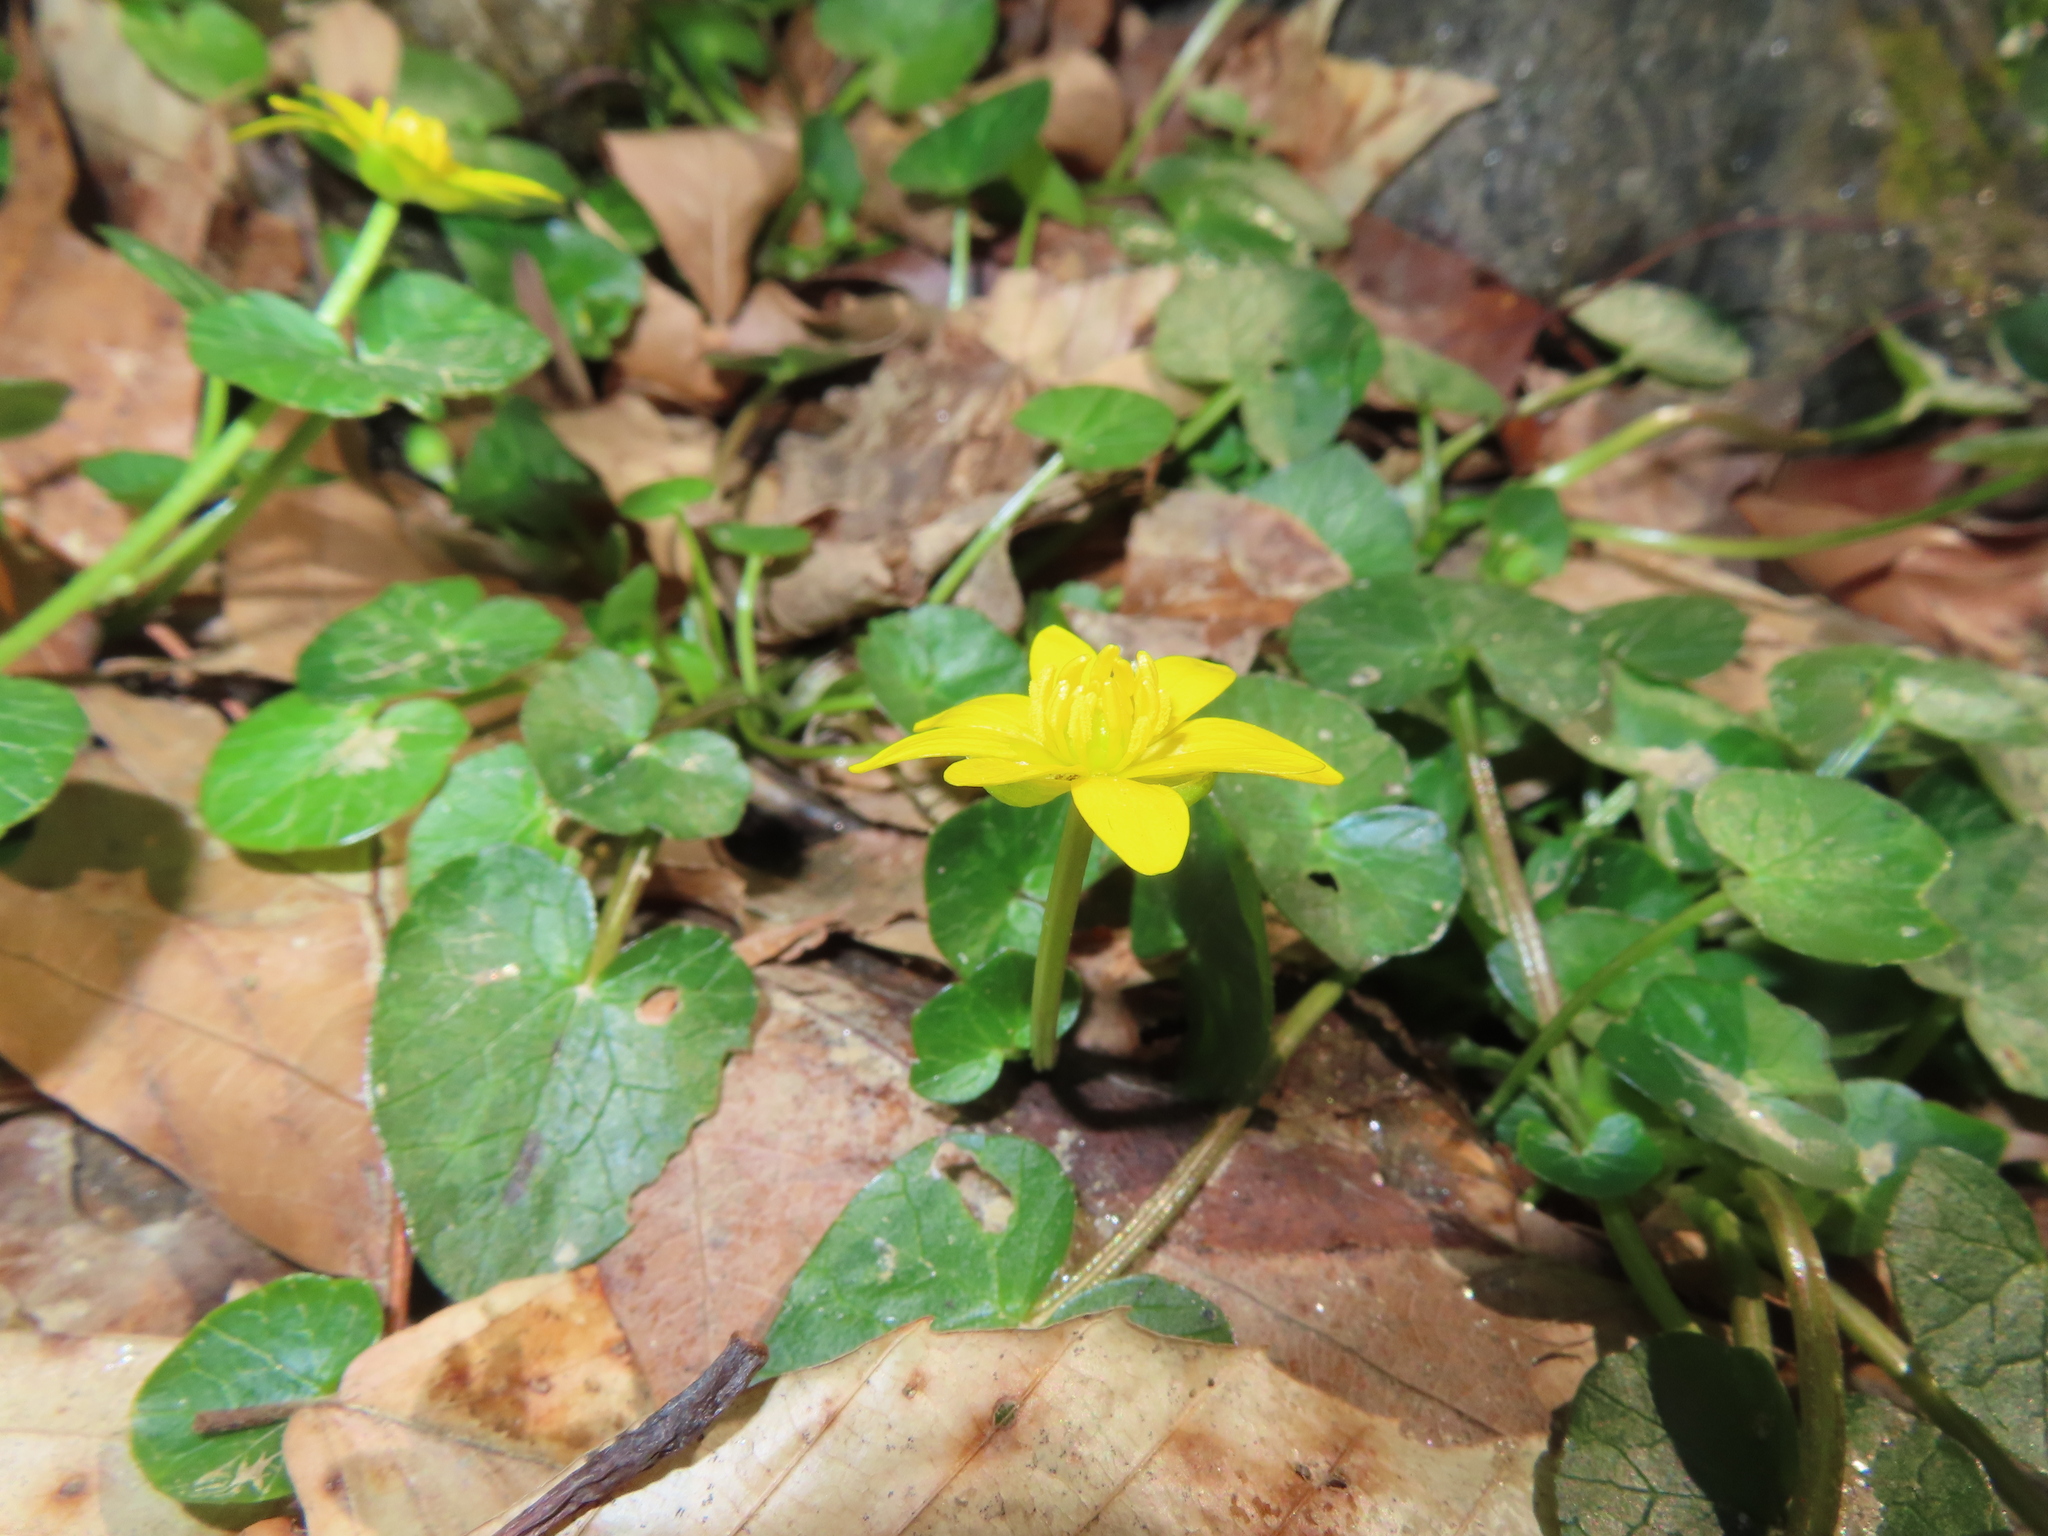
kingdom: Plantae
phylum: Tracheophyta
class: Magnoliopsida
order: Ranunculales
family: Ranunculaceae
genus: Ficaria
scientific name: Ficaria verna
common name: Lesser celandine
